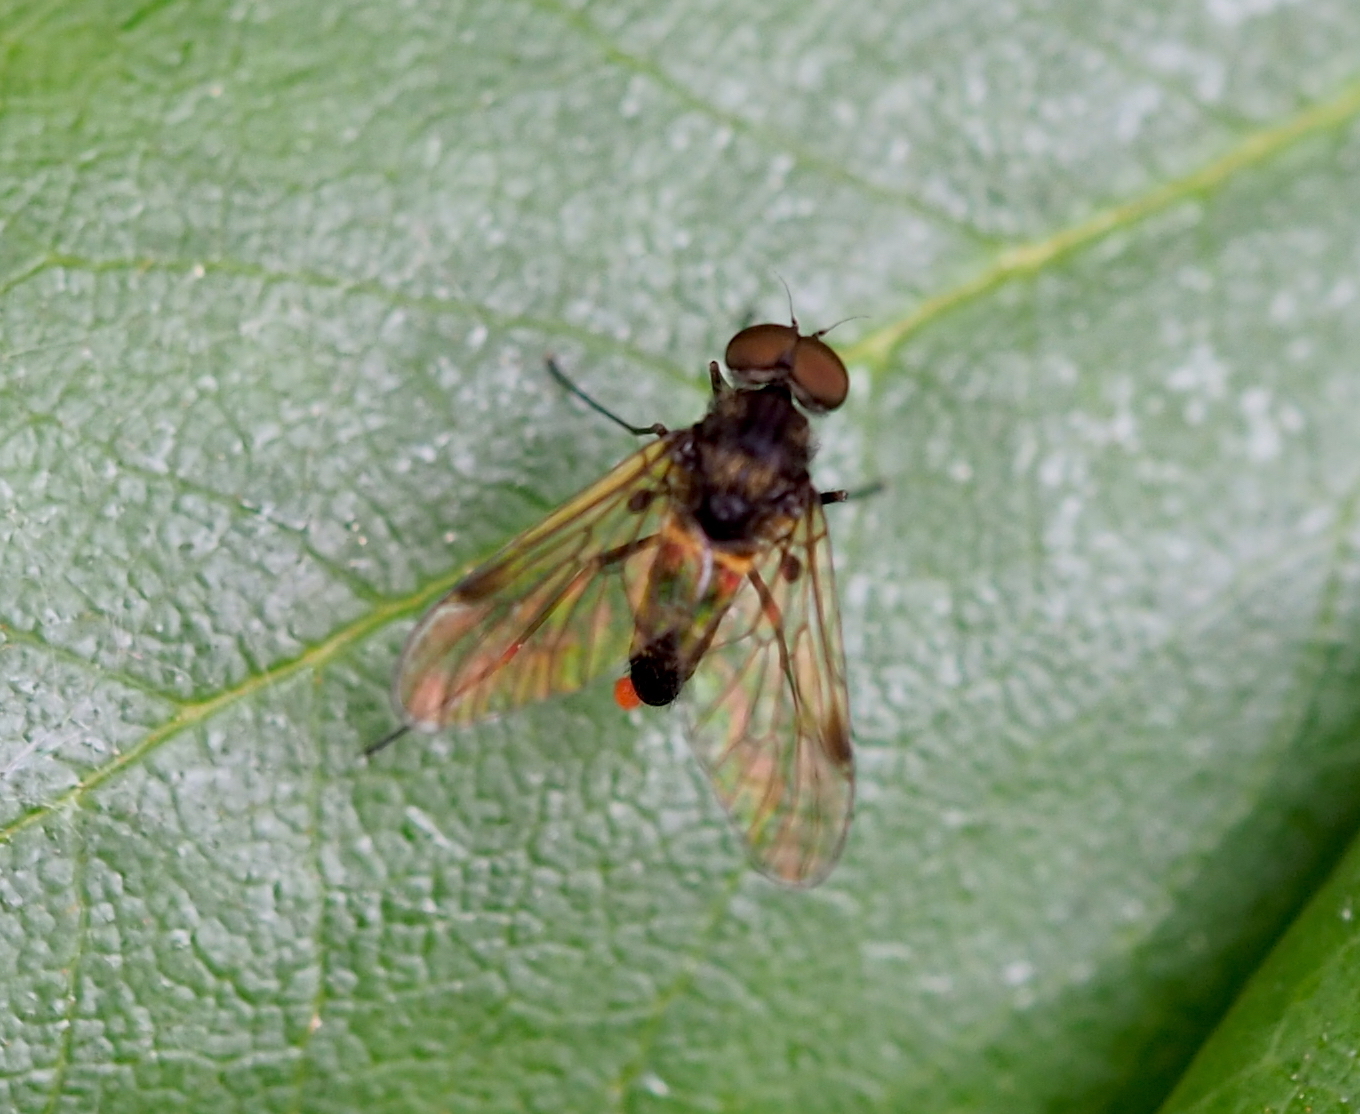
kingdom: Animalia
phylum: Arthropoda
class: Insecta
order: Diptera
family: Rhagionidae
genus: Chrysopilus
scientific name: Chrysopilus cristatus
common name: Black snipefly
